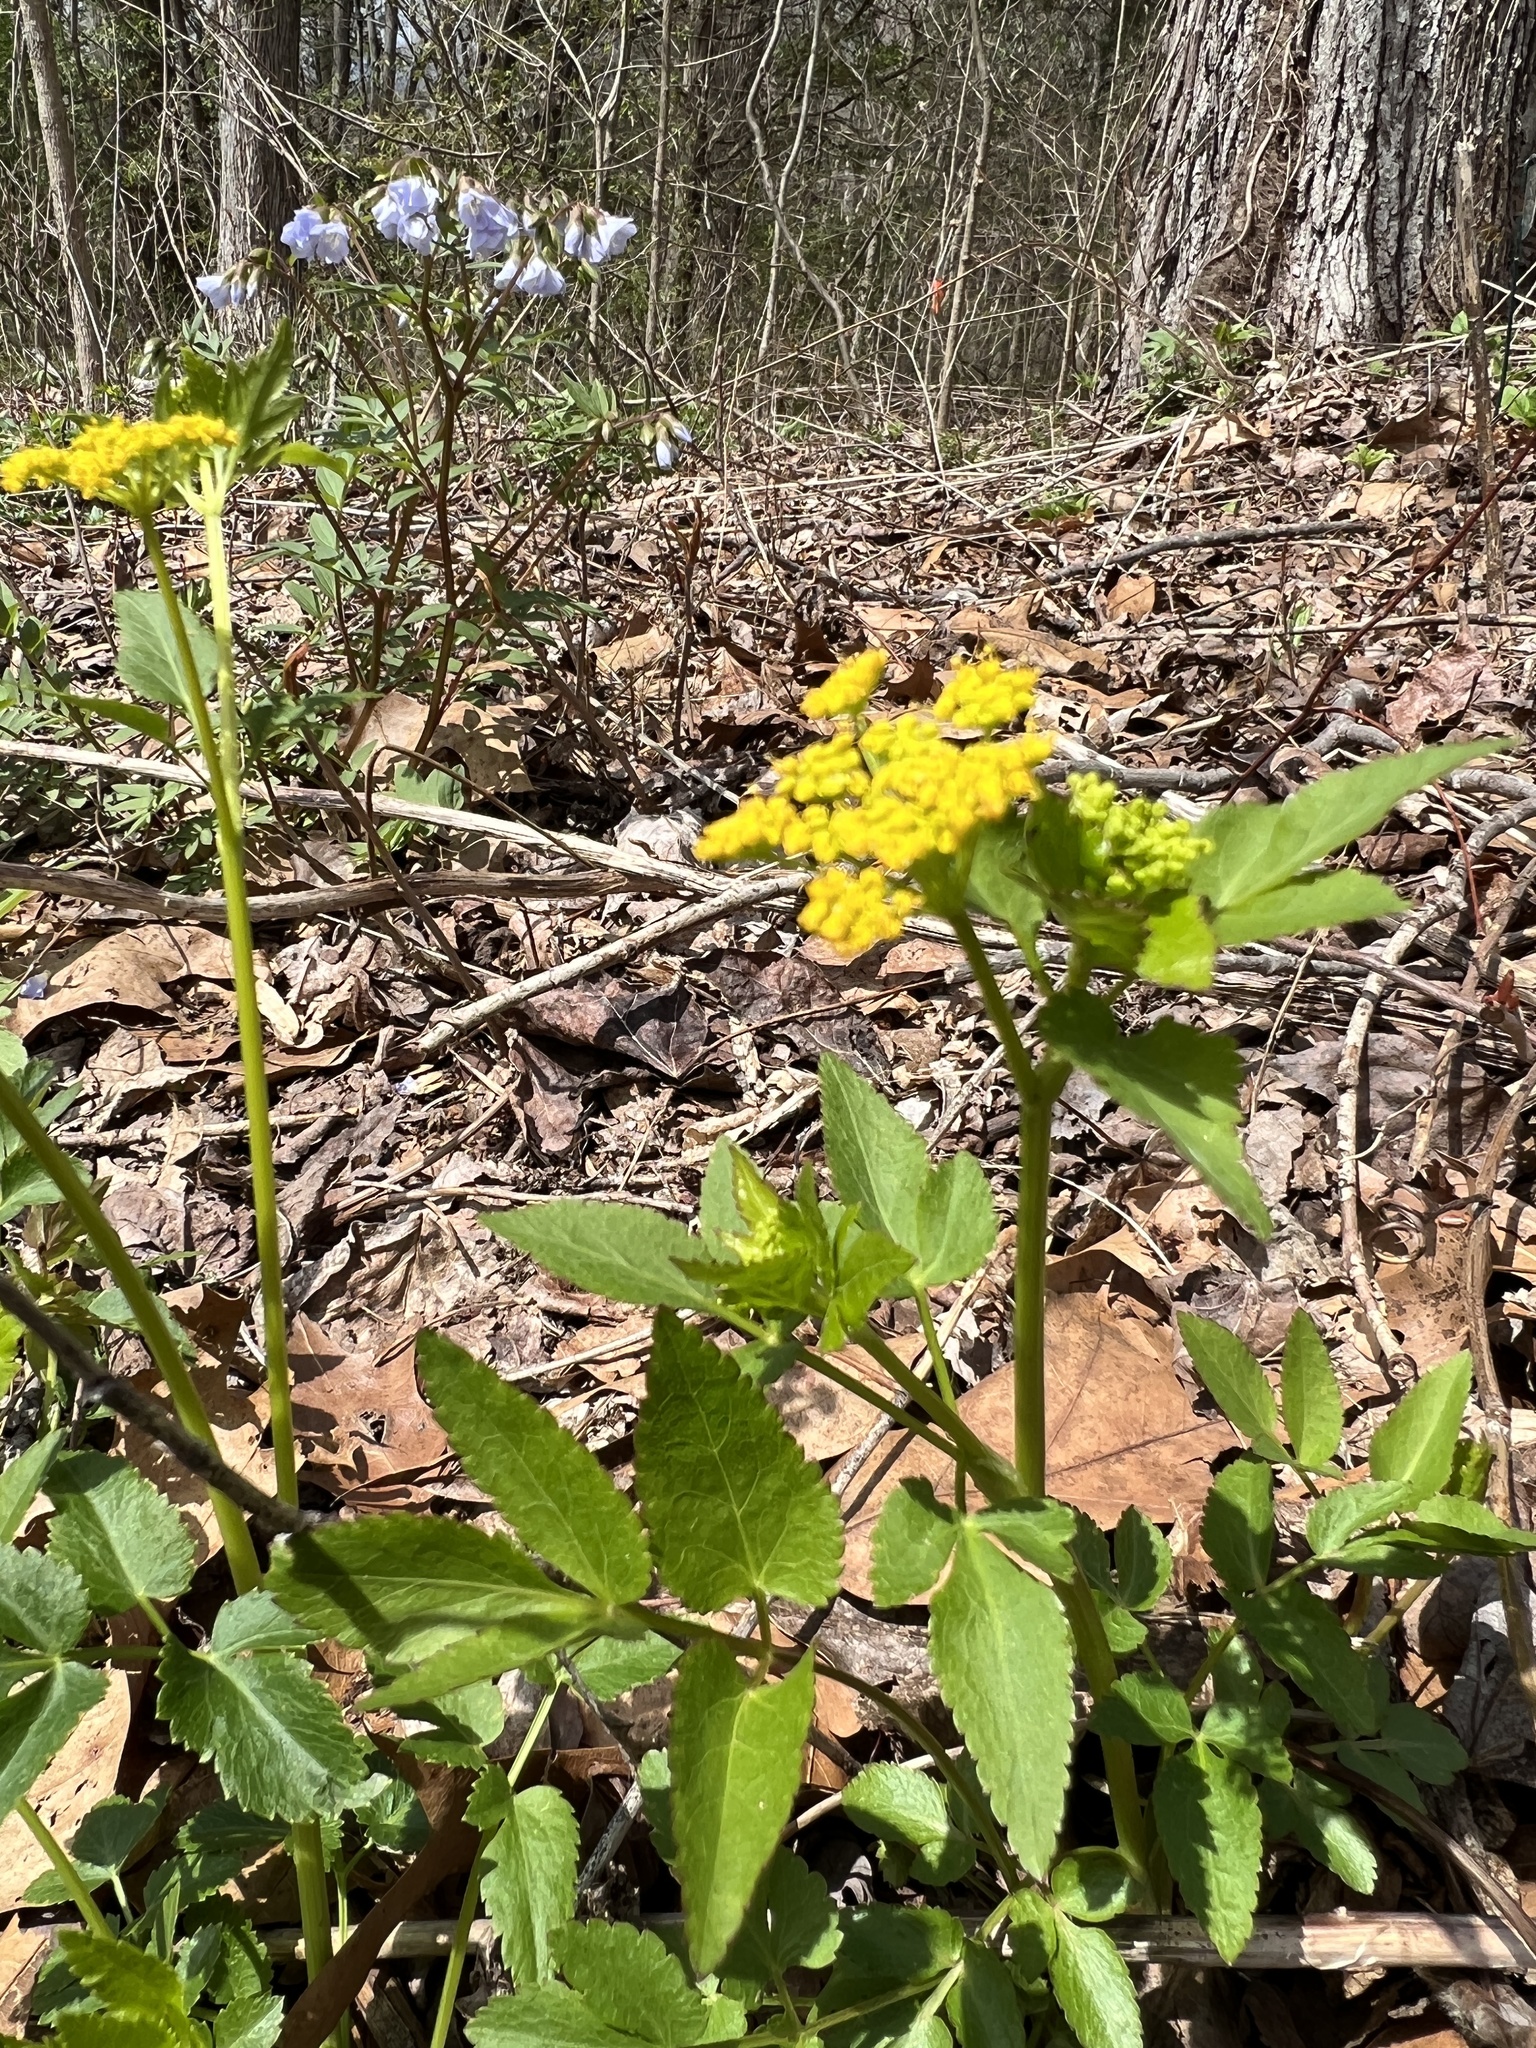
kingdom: Plantae
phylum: Tracheophyta
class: Magnoliopsida
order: Apiales
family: Apiaceae
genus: Zizia
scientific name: Zizia aurea
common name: Golden alexanders
